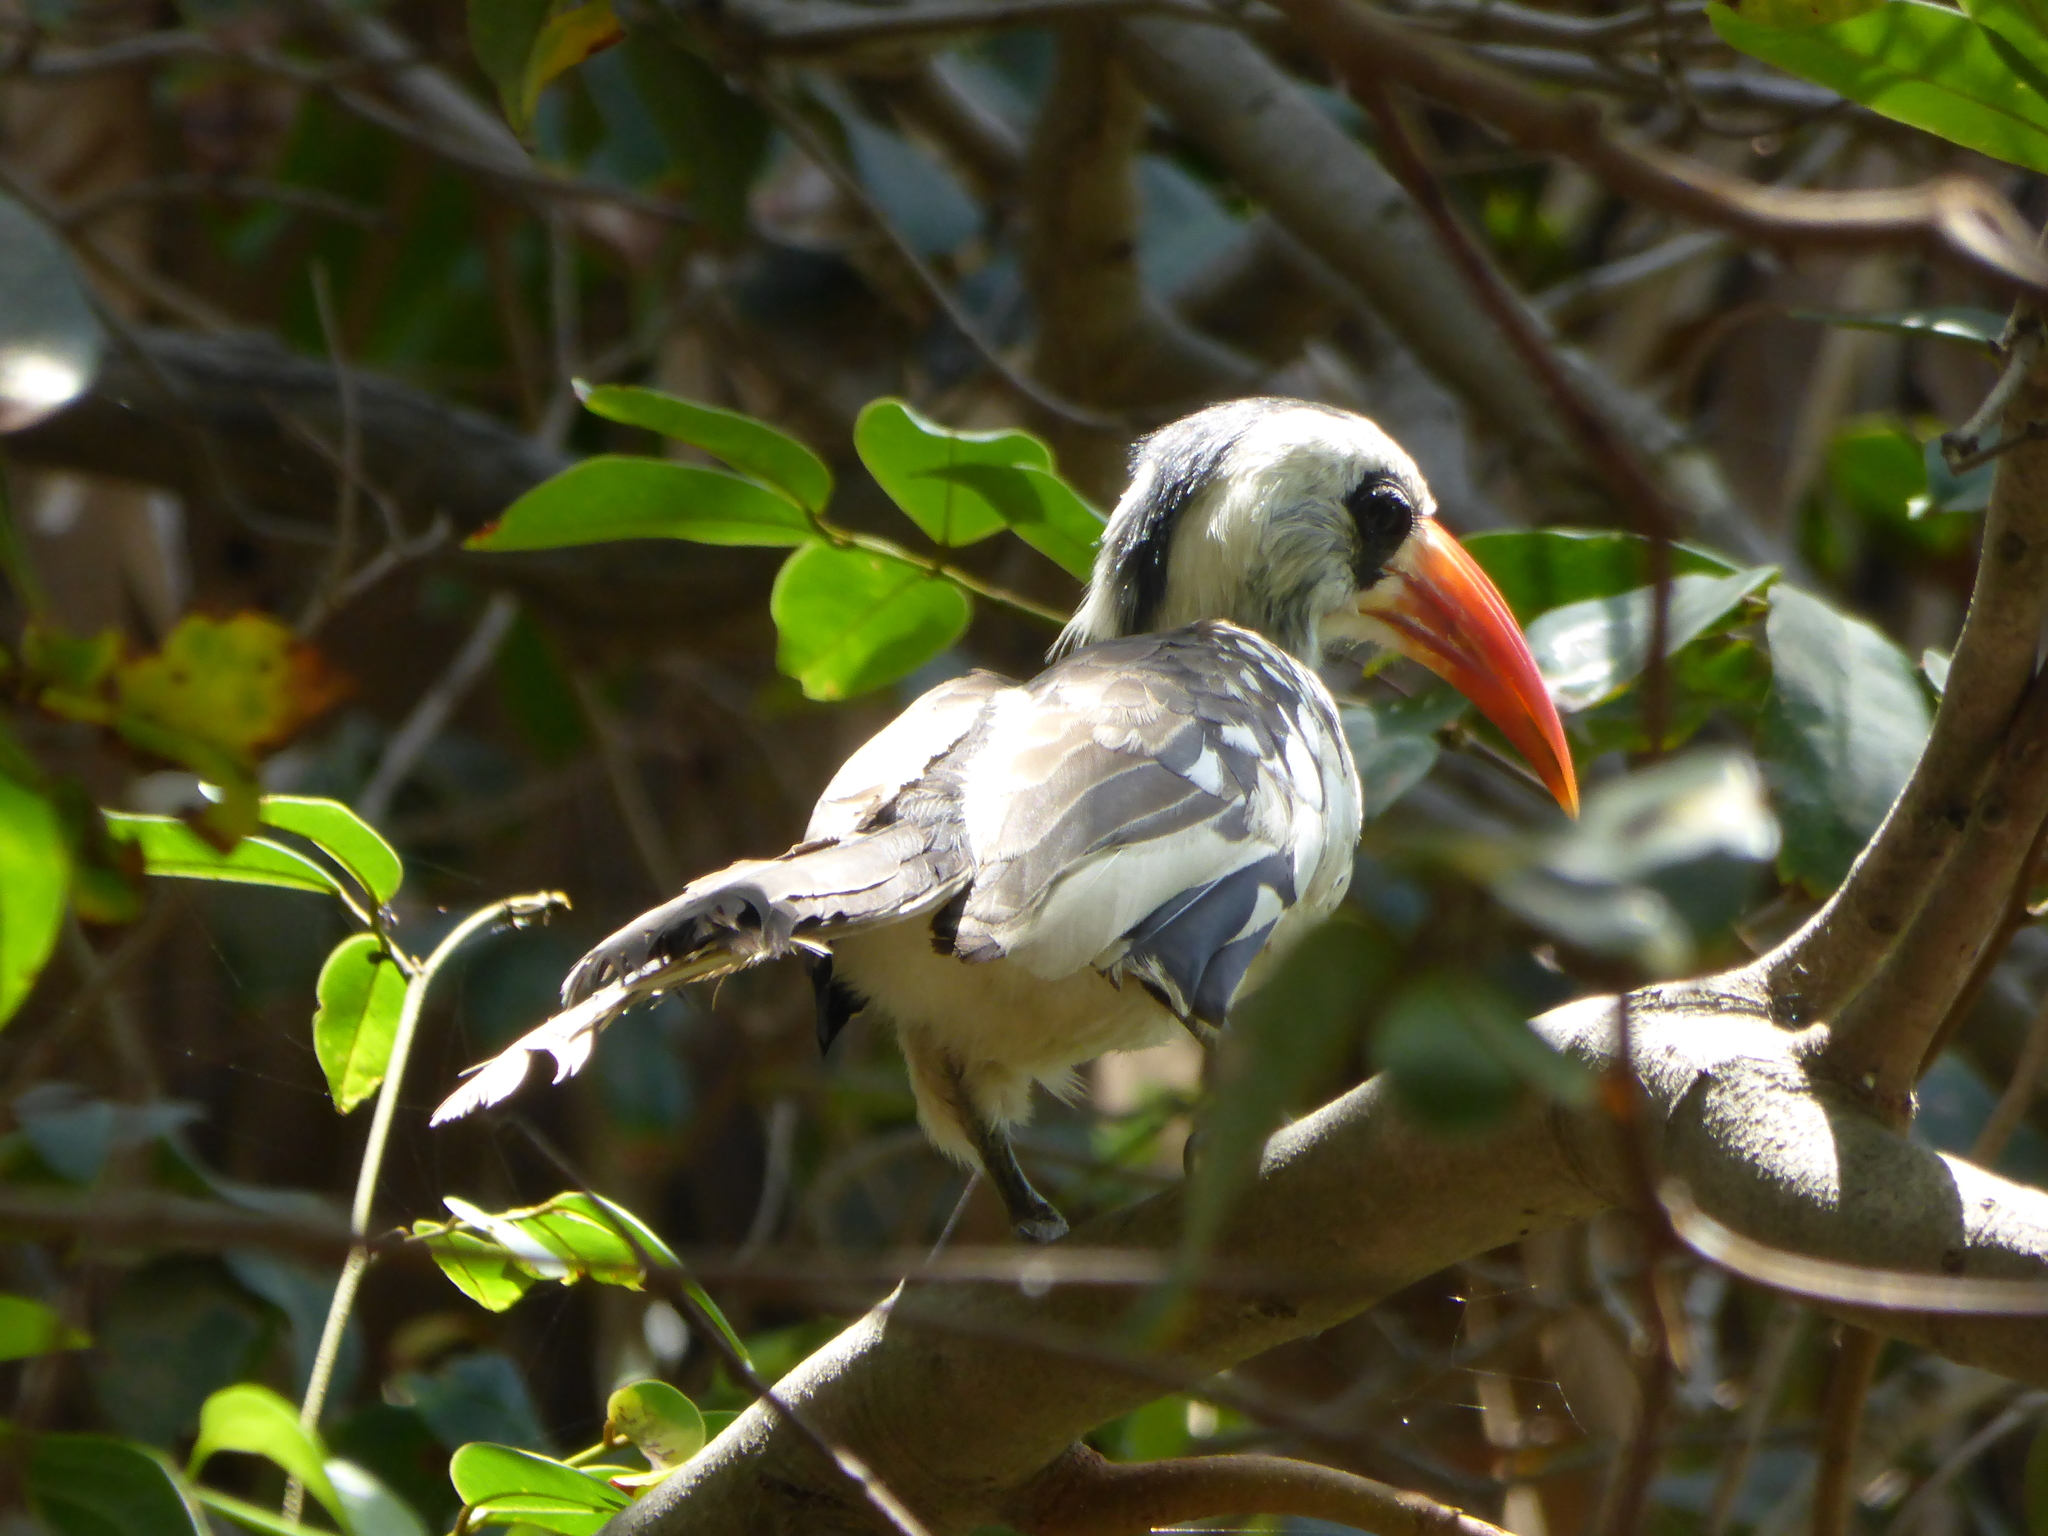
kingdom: Animalia
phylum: Chordata
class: Aves
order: Bucerotiformes
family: Bucerotidae
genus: Tockus
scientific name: Tockus kempi
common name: Western red-billed hornbill
